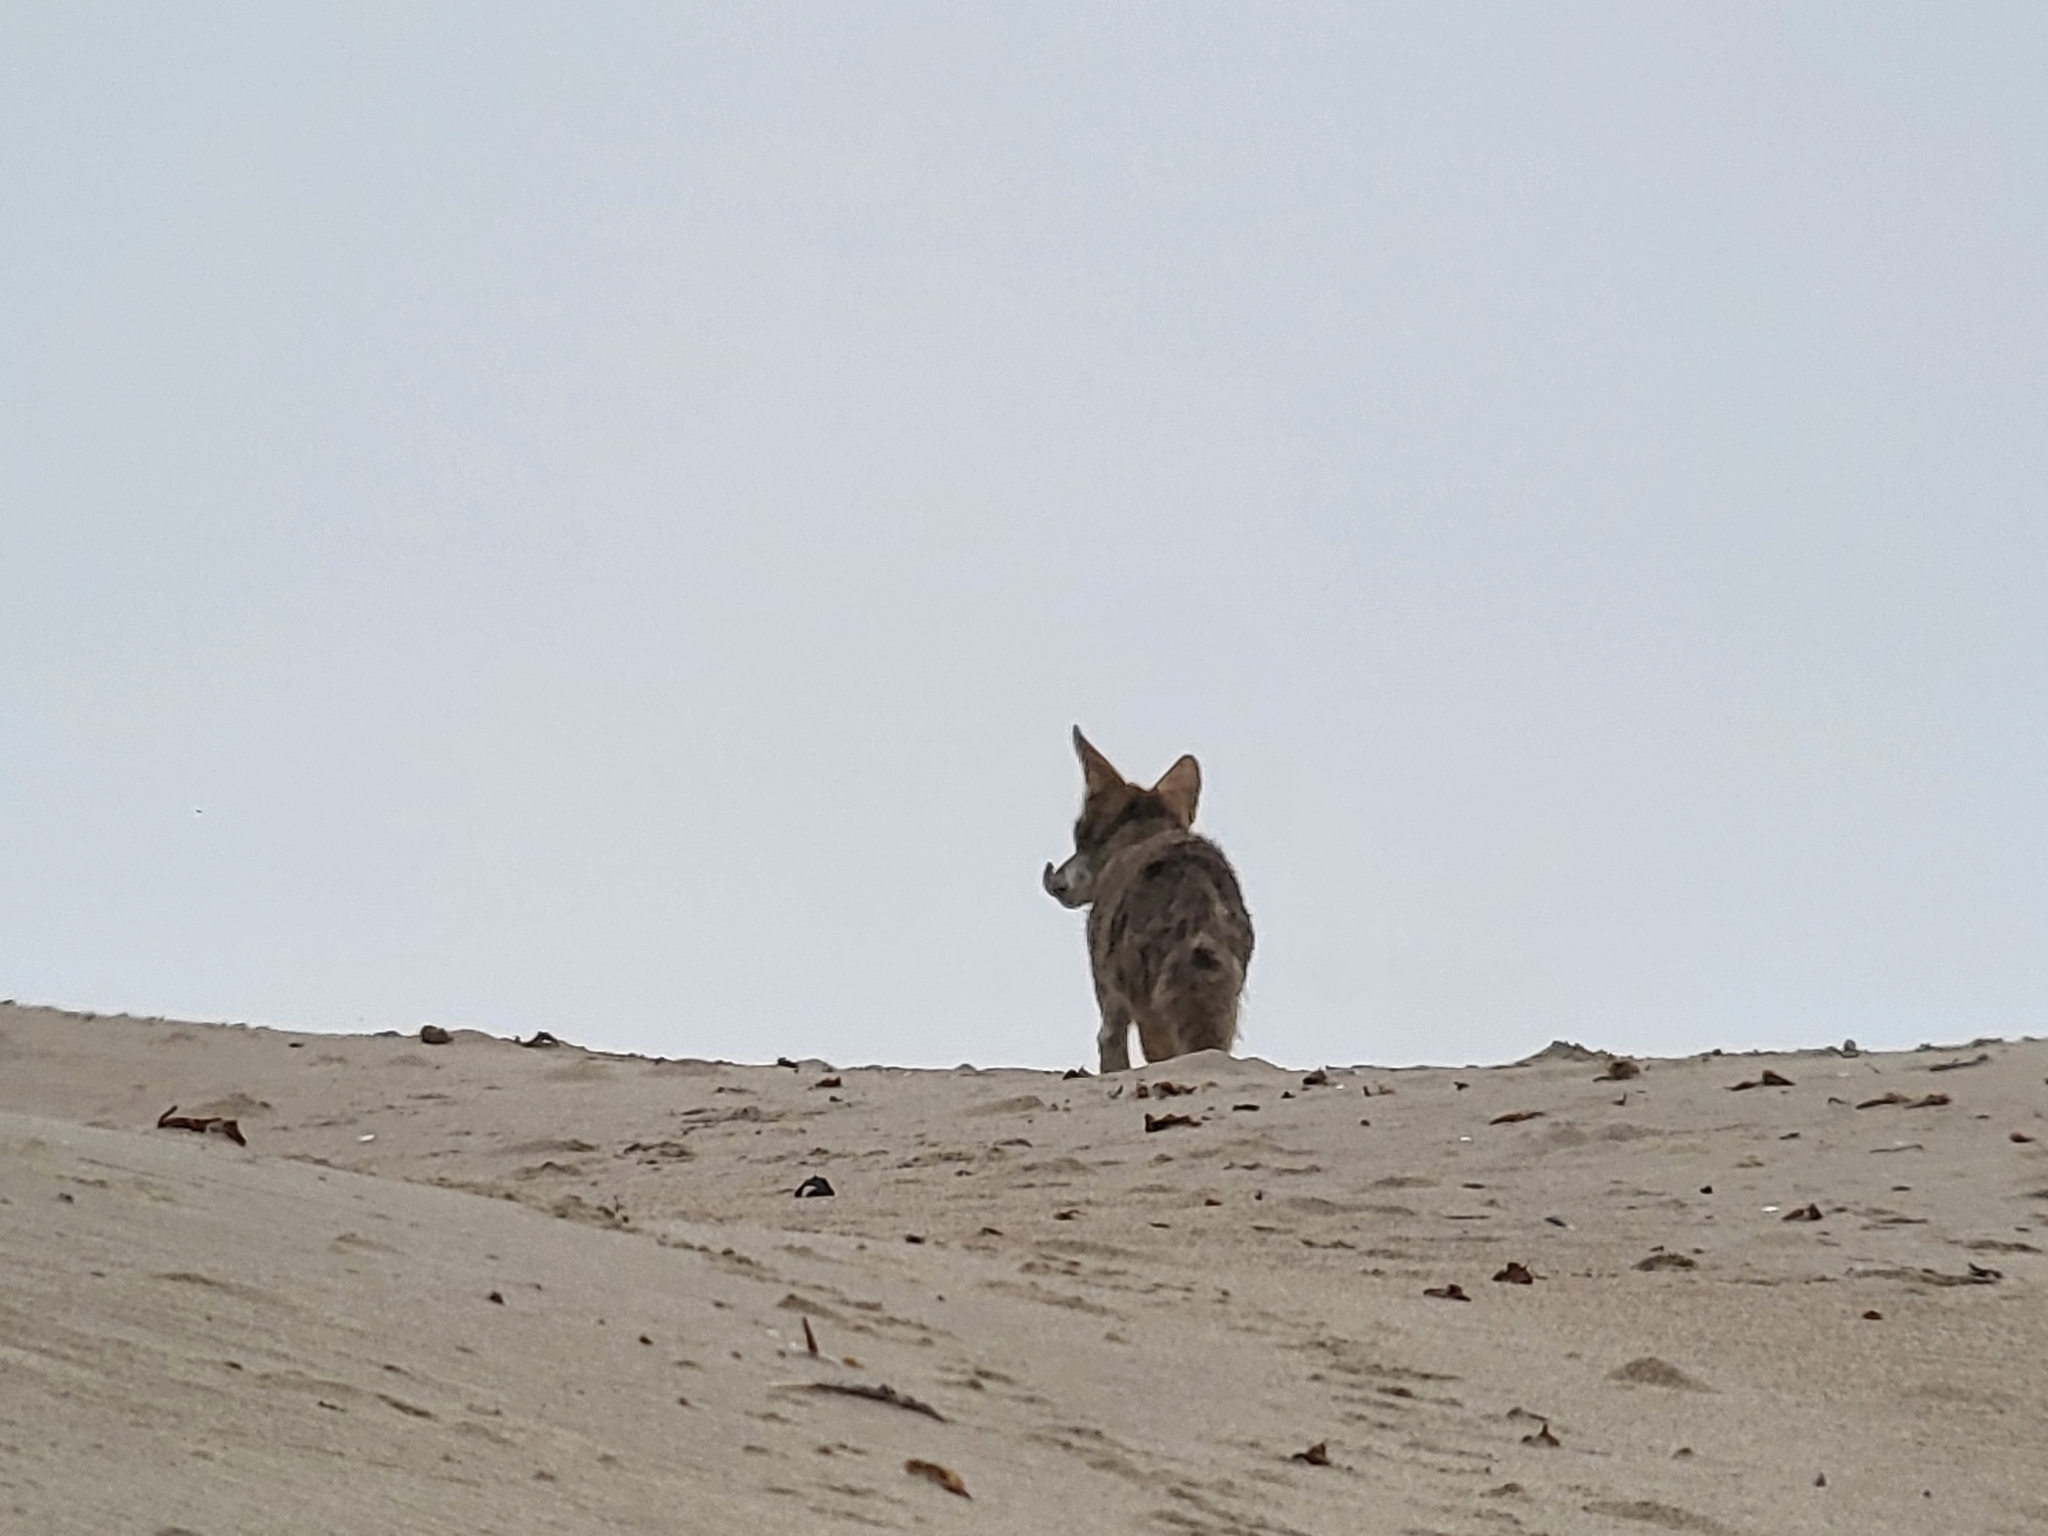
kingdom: Animalia
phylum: Chordata
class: Mammalia
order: Carnivora
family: Canidae
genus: Canis
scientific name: Canis latrans
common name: Coyote
